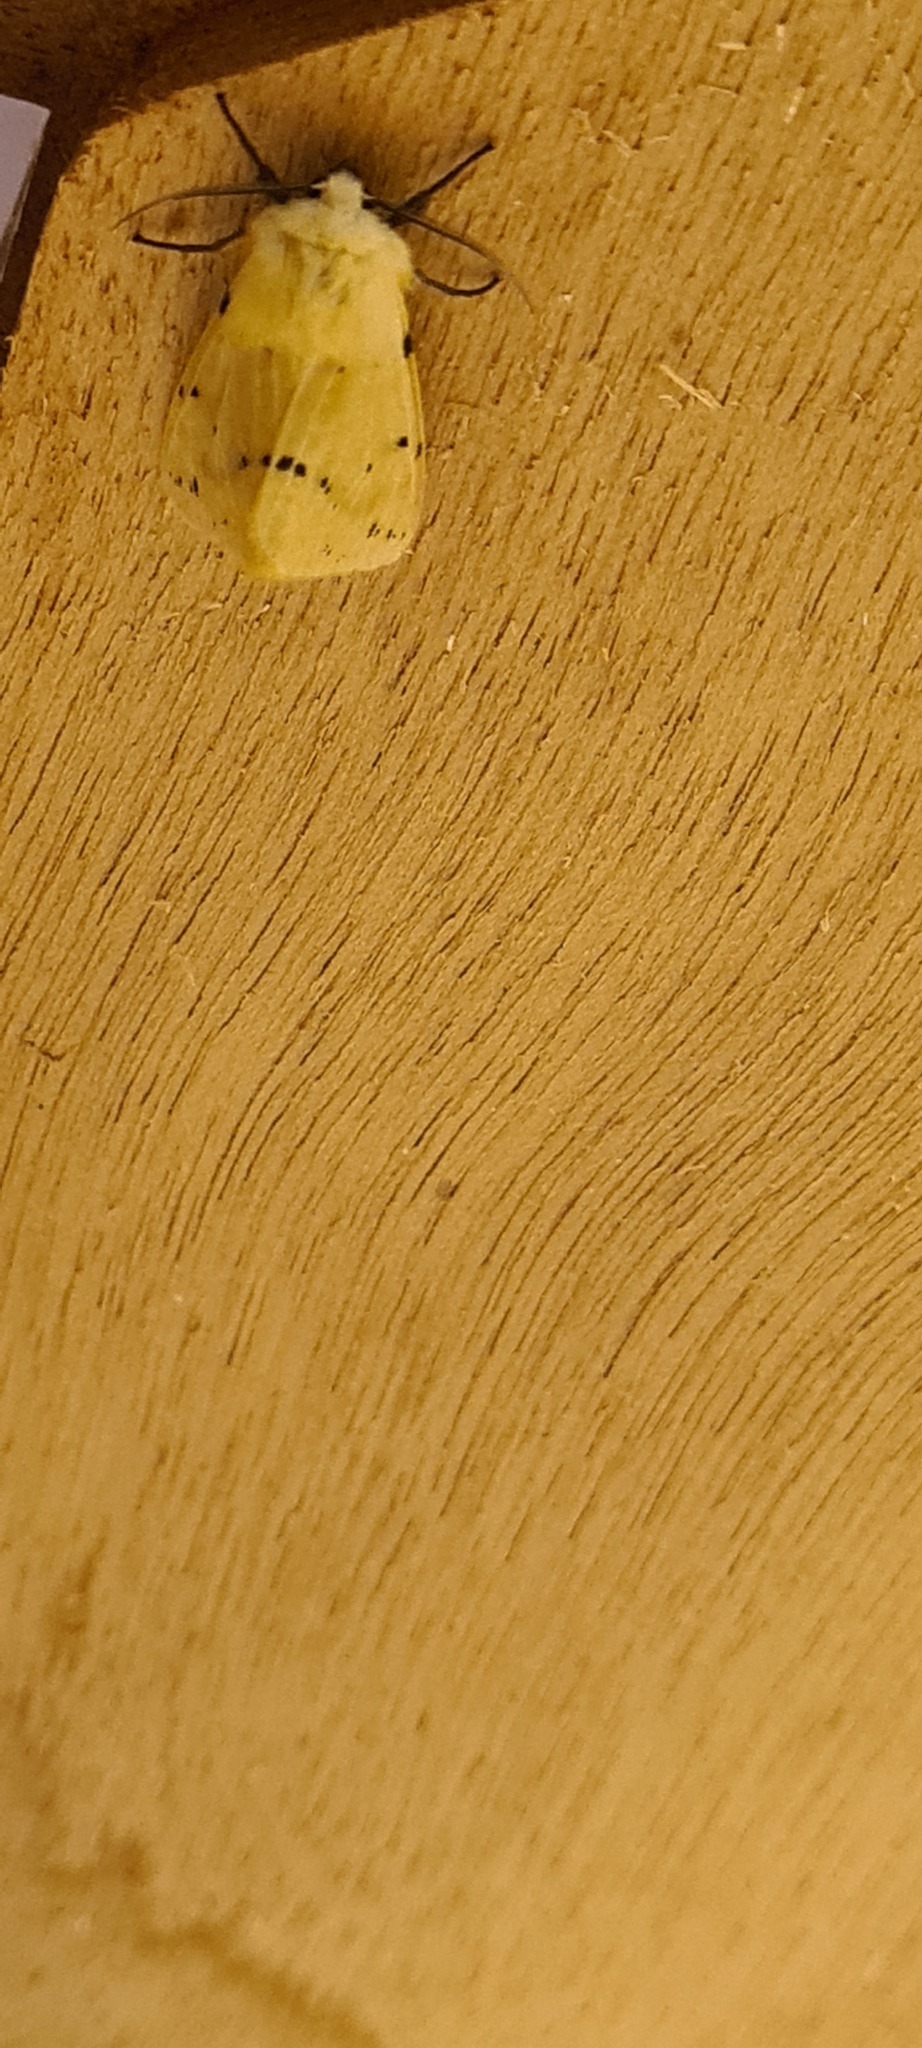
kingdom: Animalia
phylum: Arthropoda
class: Insecta
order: Lepidoptera
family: Erebidae
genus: Spilarctia
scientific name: Spilarctia lutea
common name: Buff ermine
